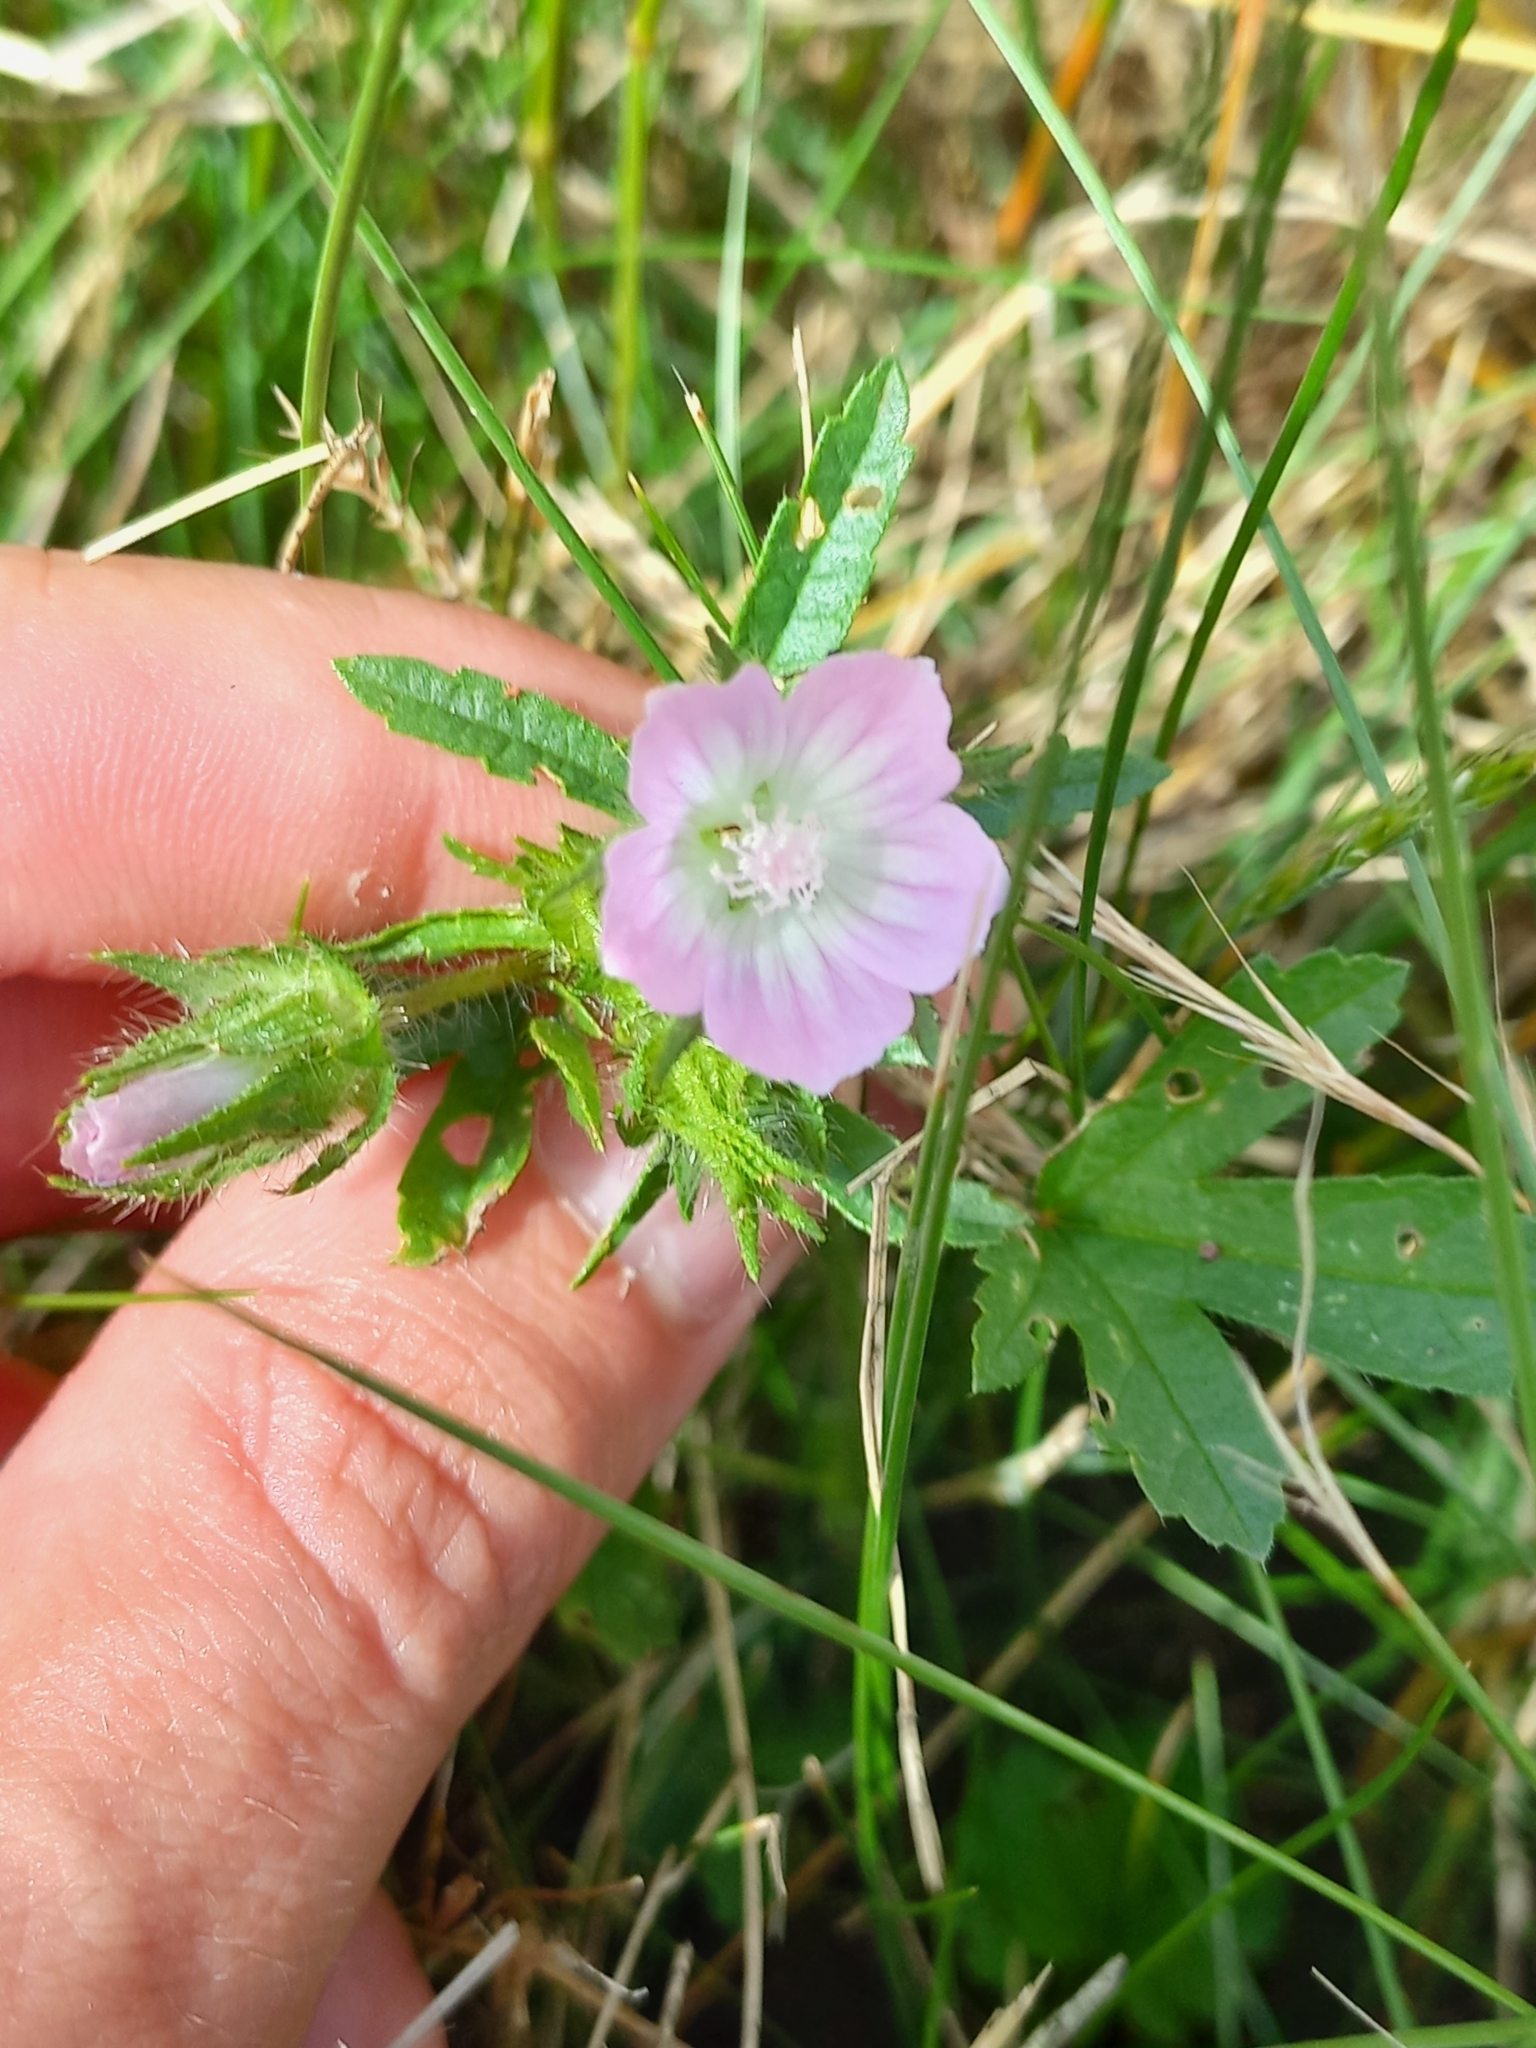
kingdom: Plantae
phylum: Tracheophyta
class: Magnoliopsida
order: Malvales
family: Malvaceae
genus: Althaea
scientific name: Althaea hirsuta
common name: Rough marsh-mallow
